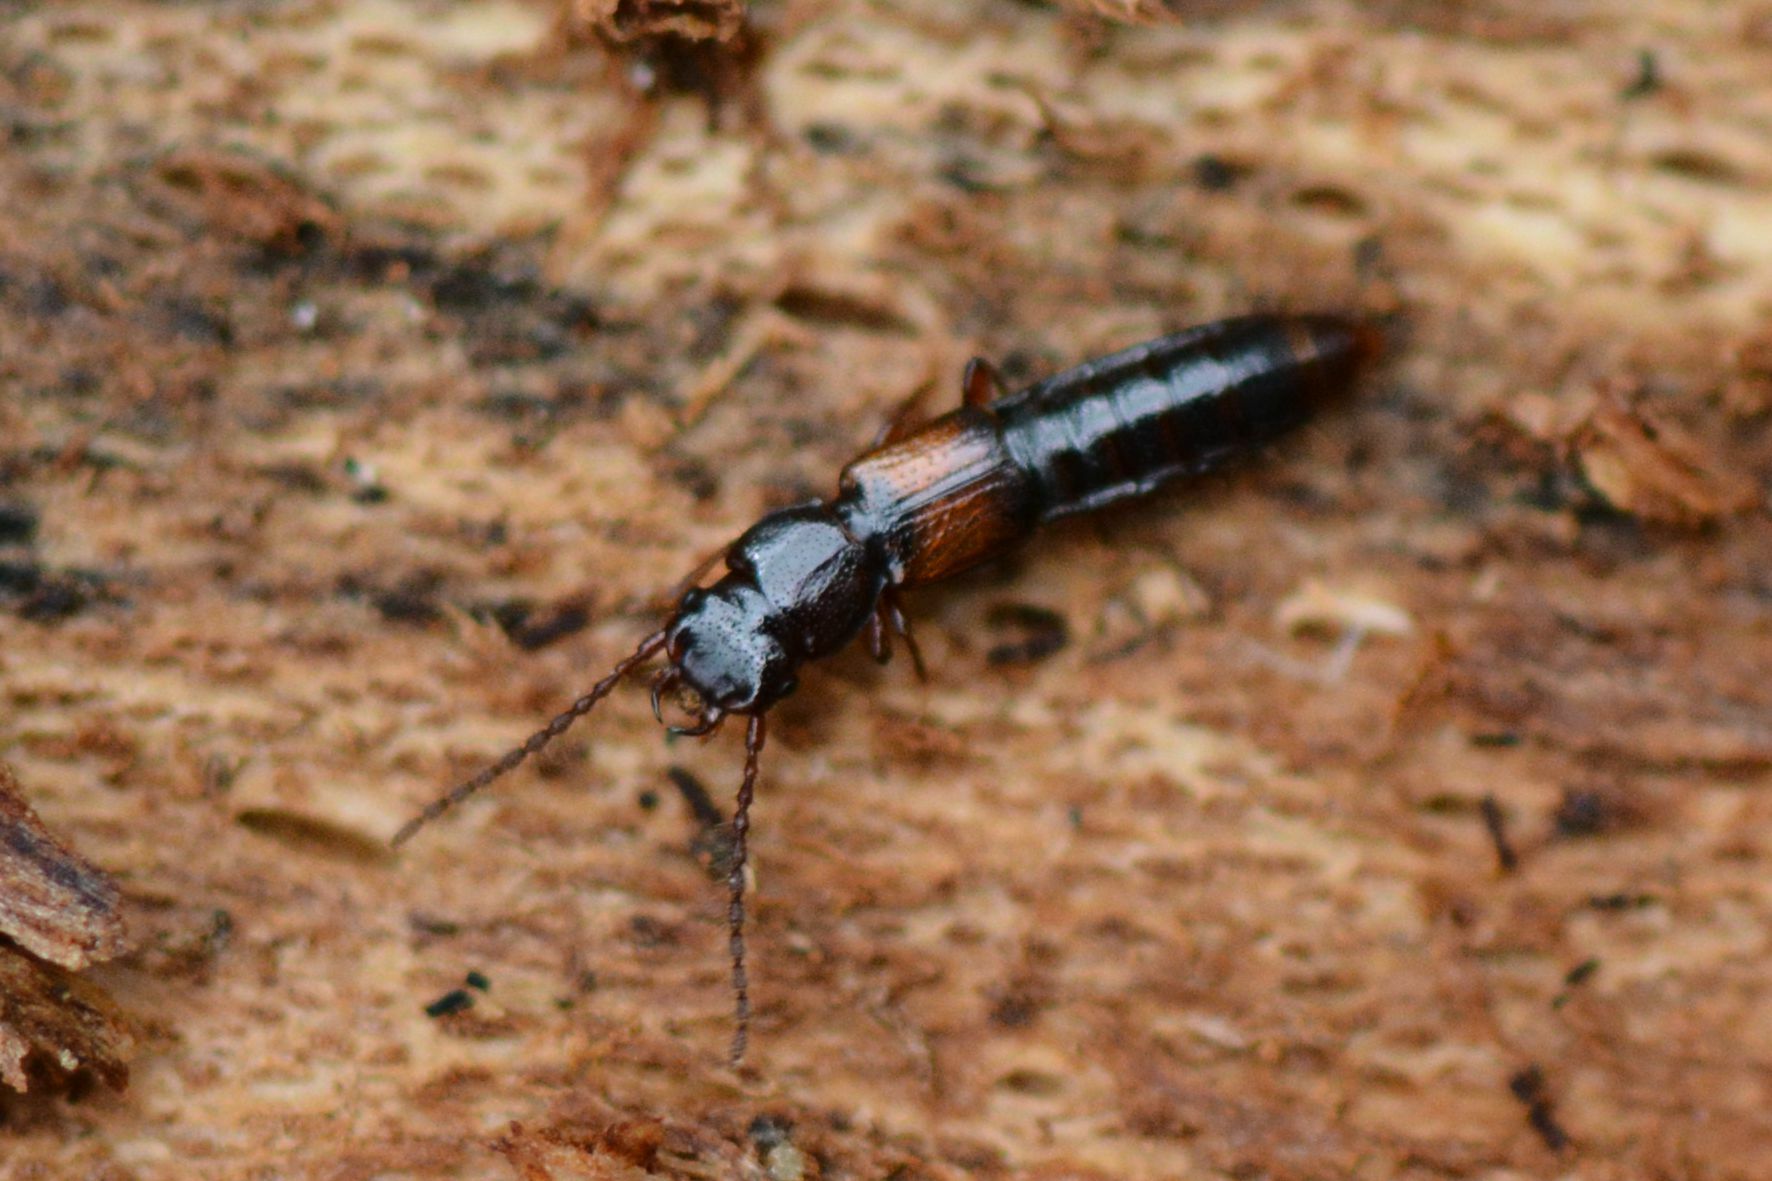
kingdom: Animalia
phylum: Arthropoda
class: Insecta
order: Coleoptera
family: Staphylinidae
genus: Siagonium
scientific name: Siagonium quadricorne
